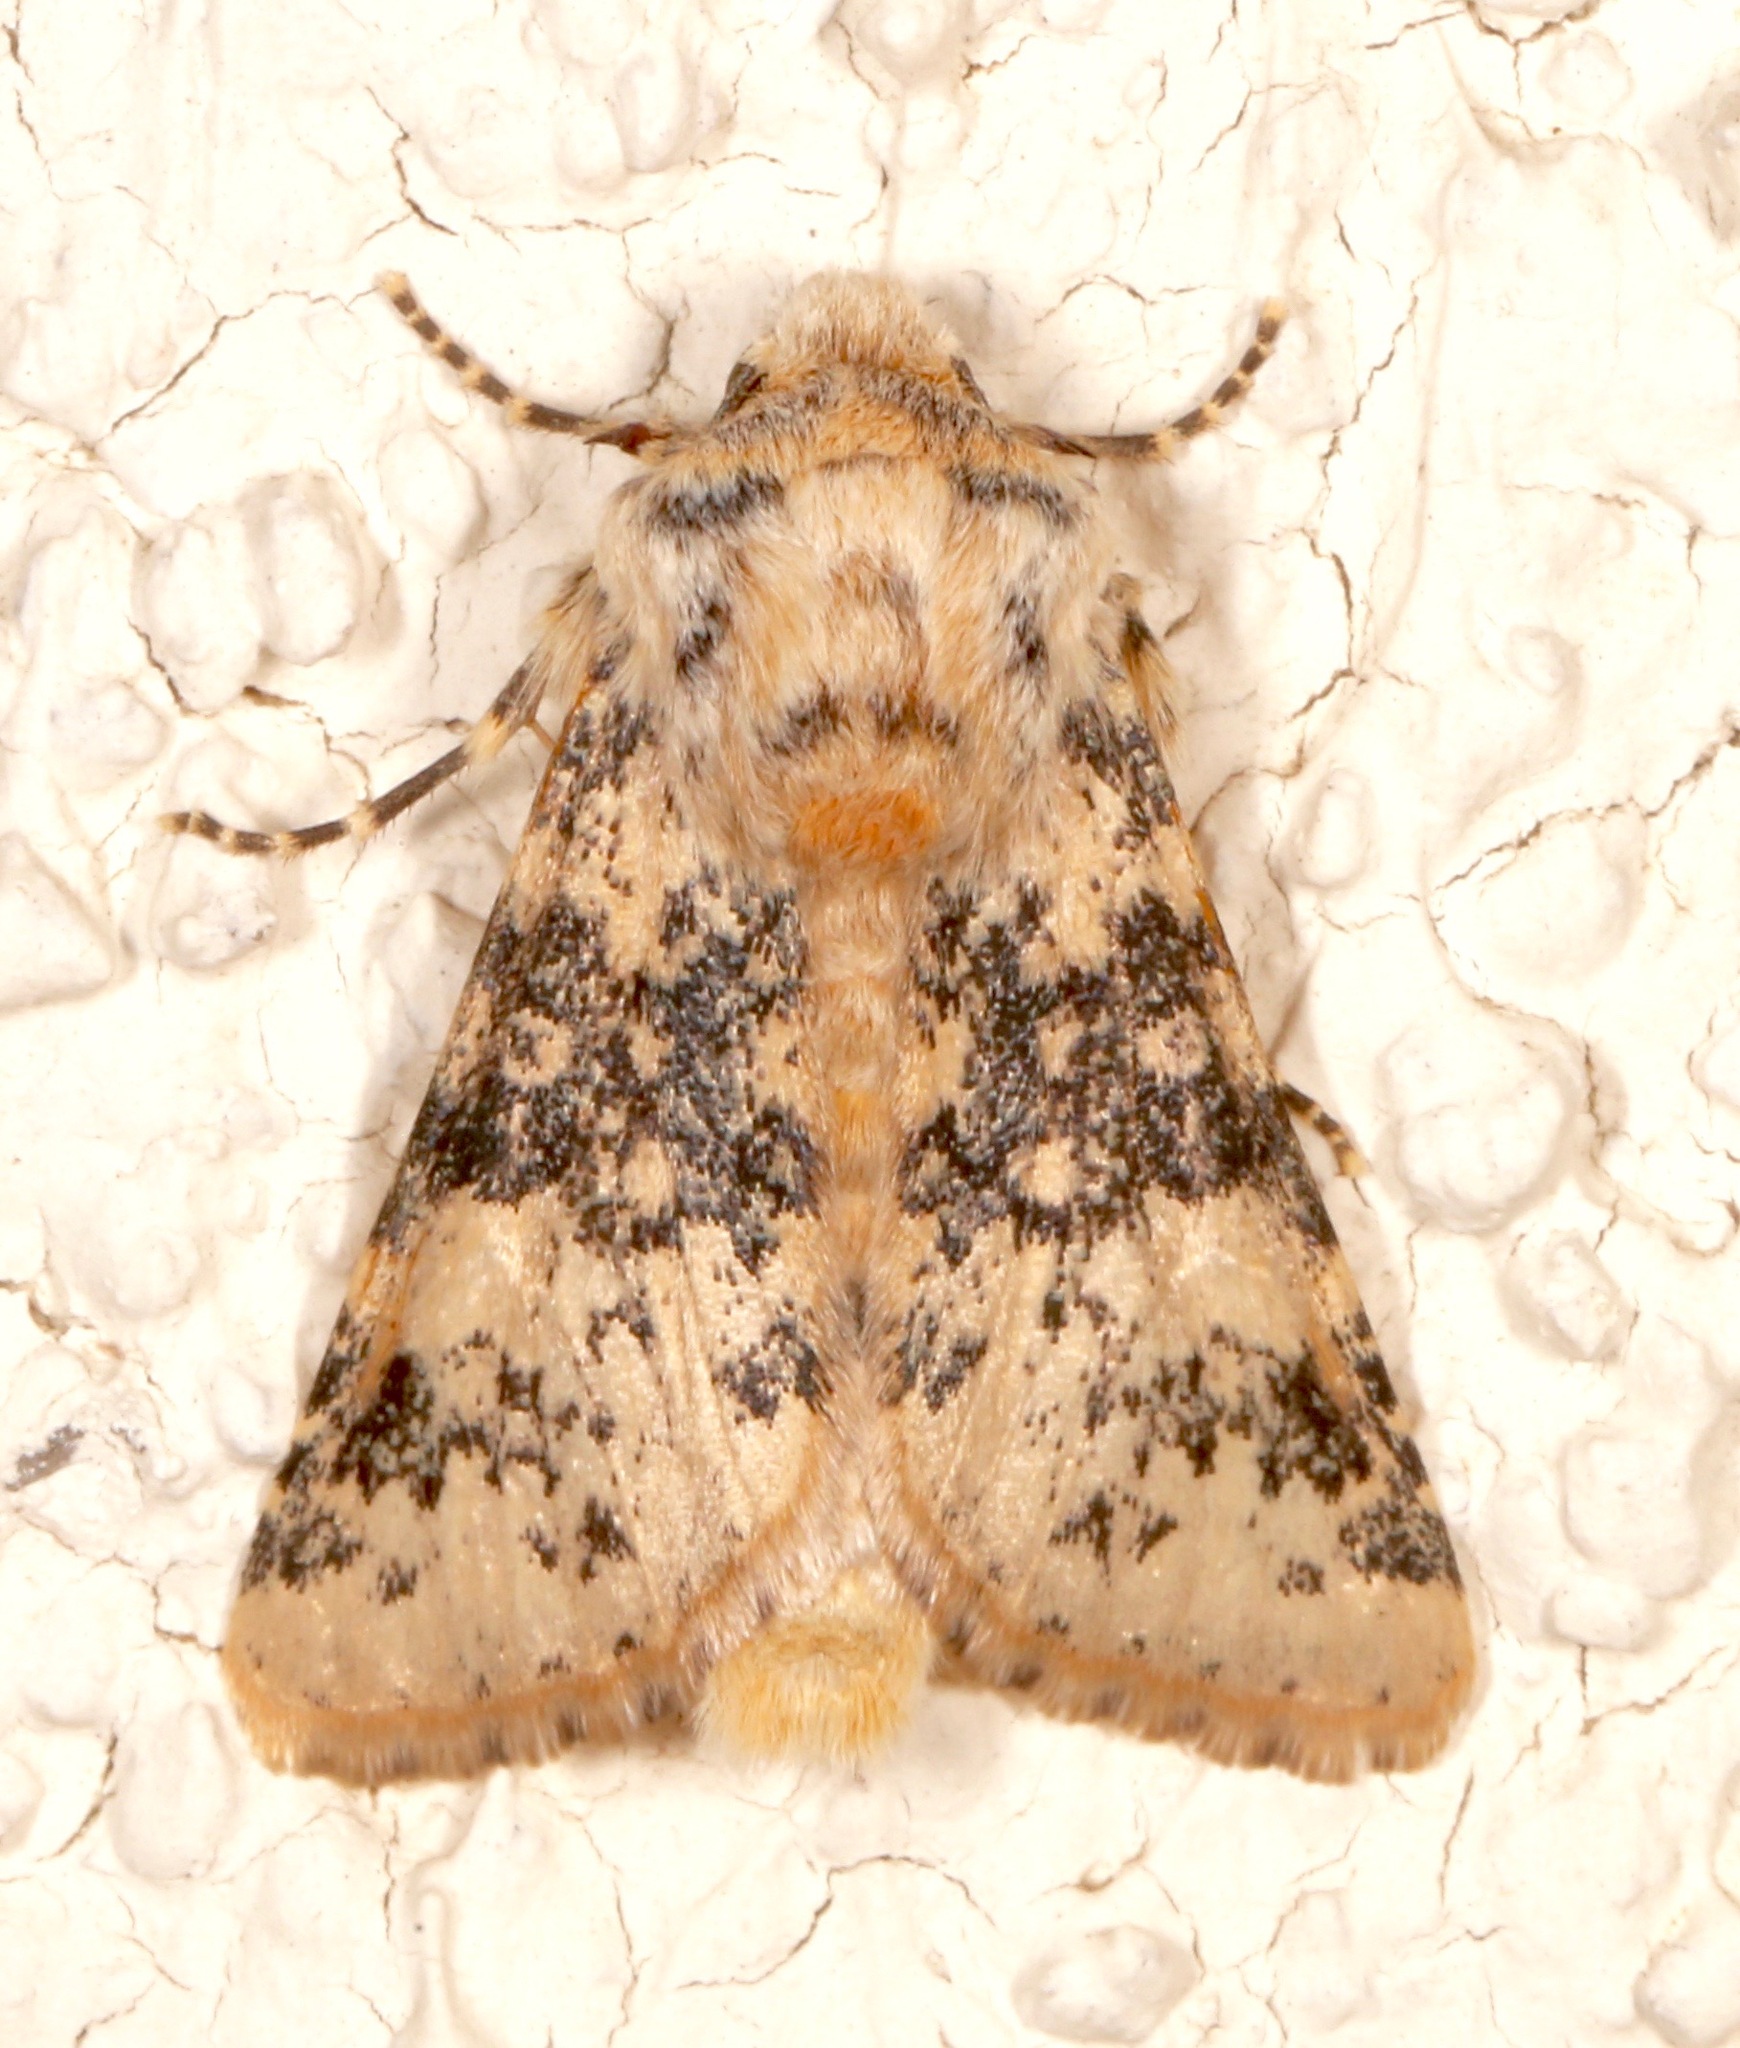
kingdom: Animalia
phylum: Arthropoda
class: Insecta
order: Lepidoptera
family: Noctuidae
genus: Unciella
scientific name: Unciella primula
